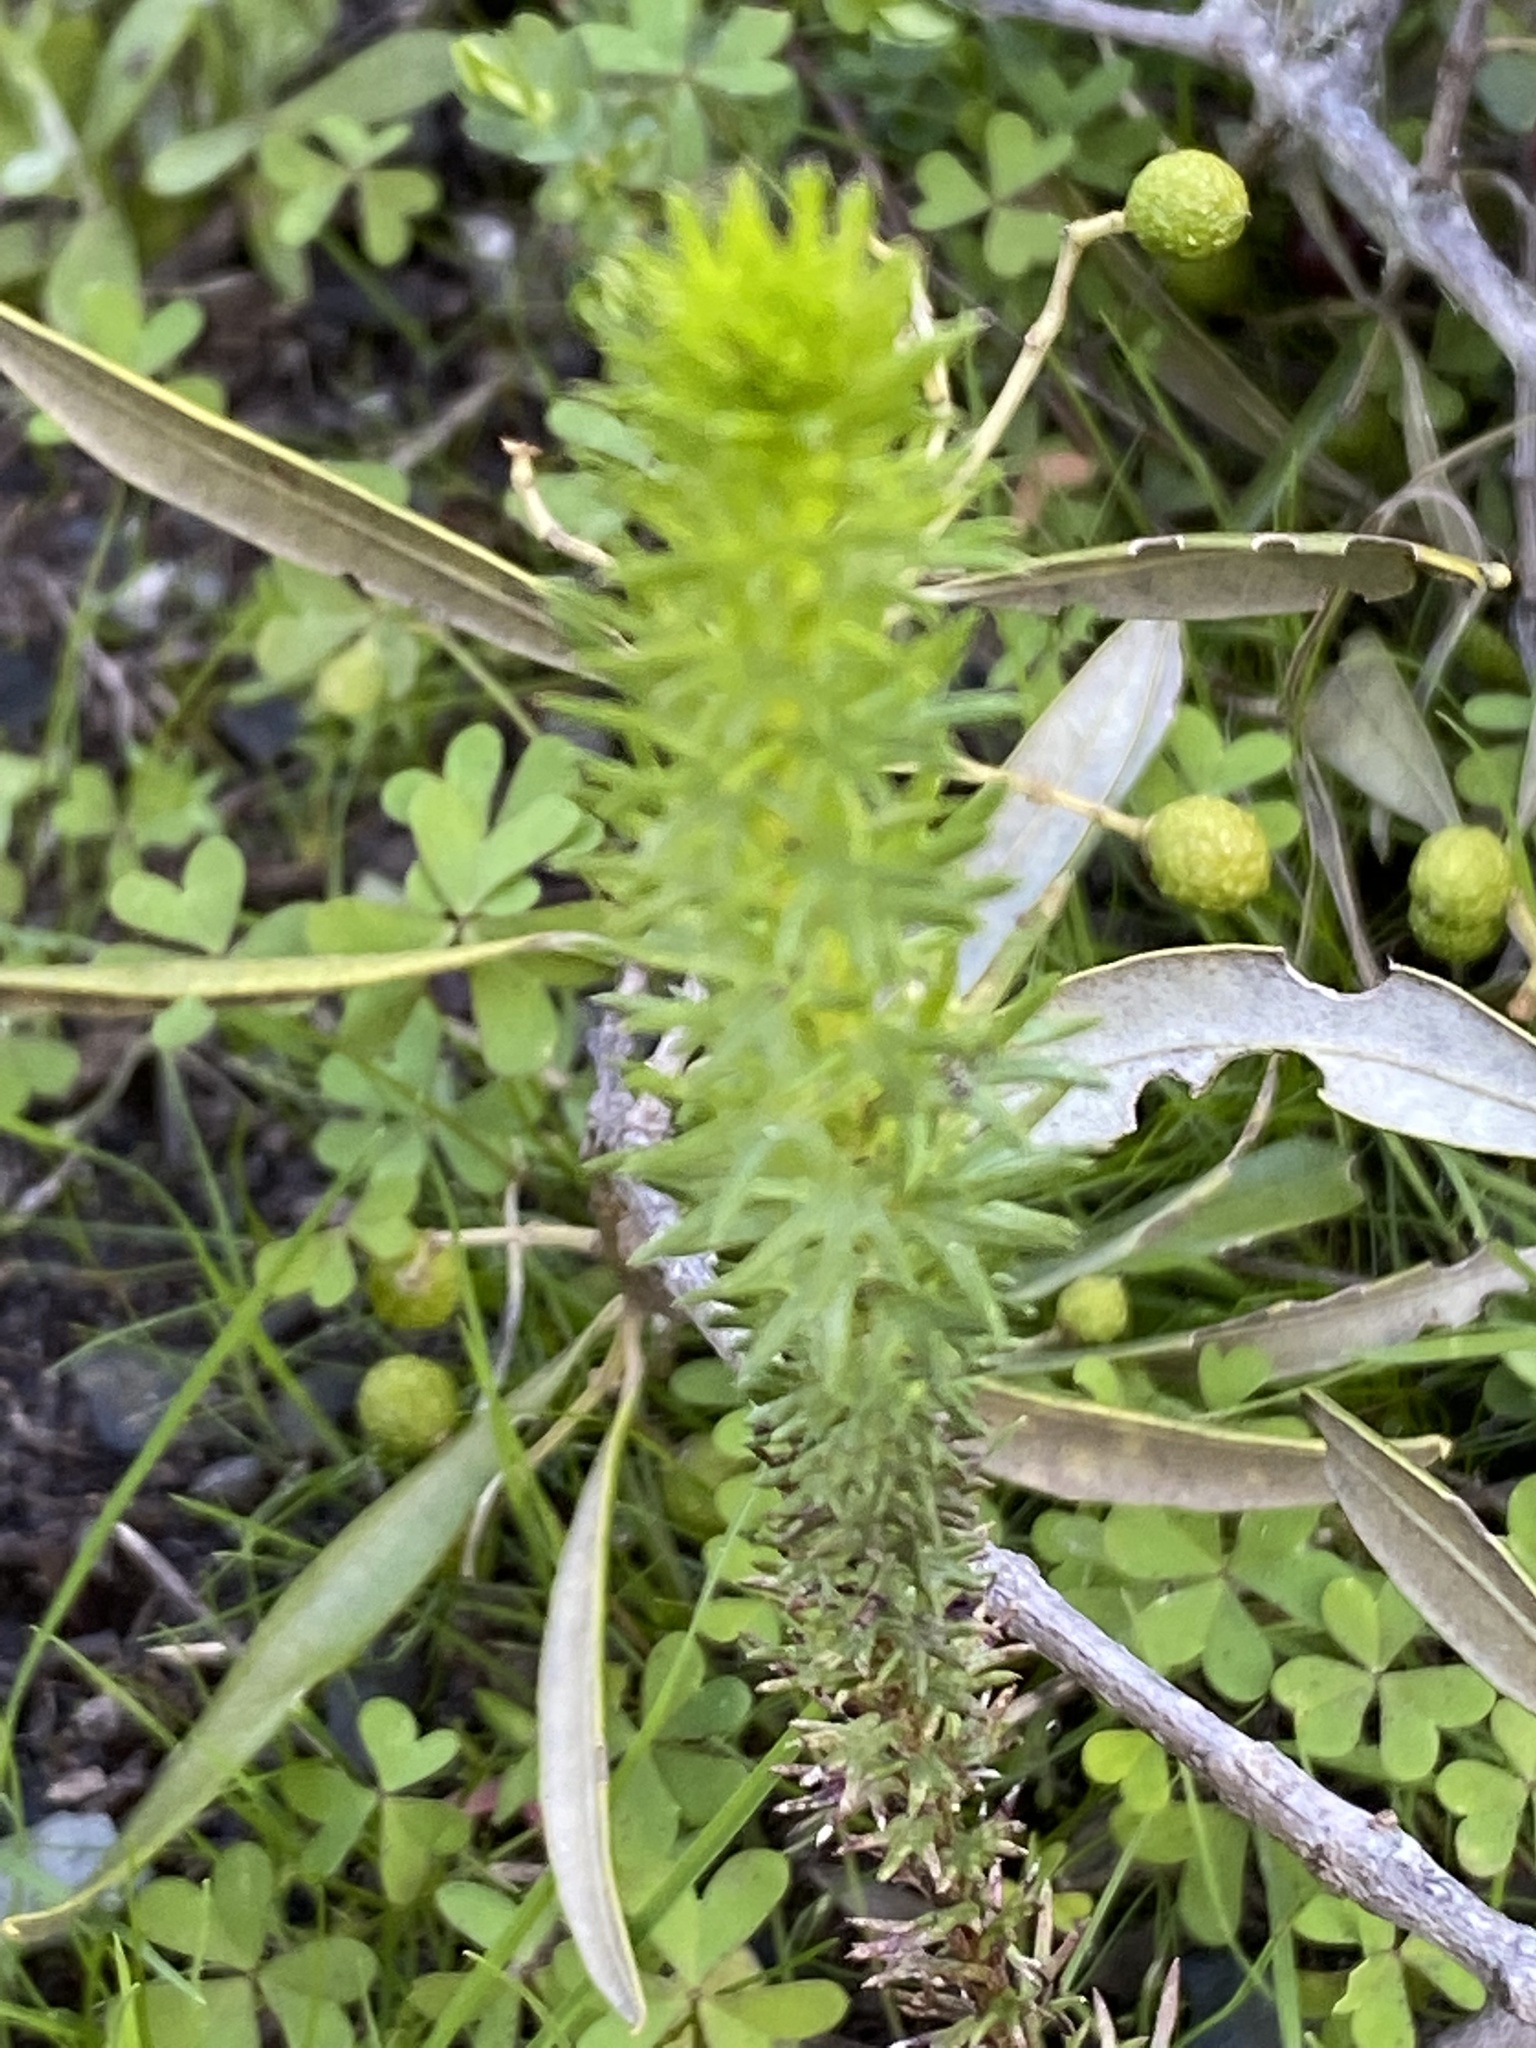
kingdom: Plantae
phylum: Tracheophyta
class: Magnoliopsida
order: Asterales
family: Asteraceae
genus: Euryops
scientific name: Euryops virgineus
